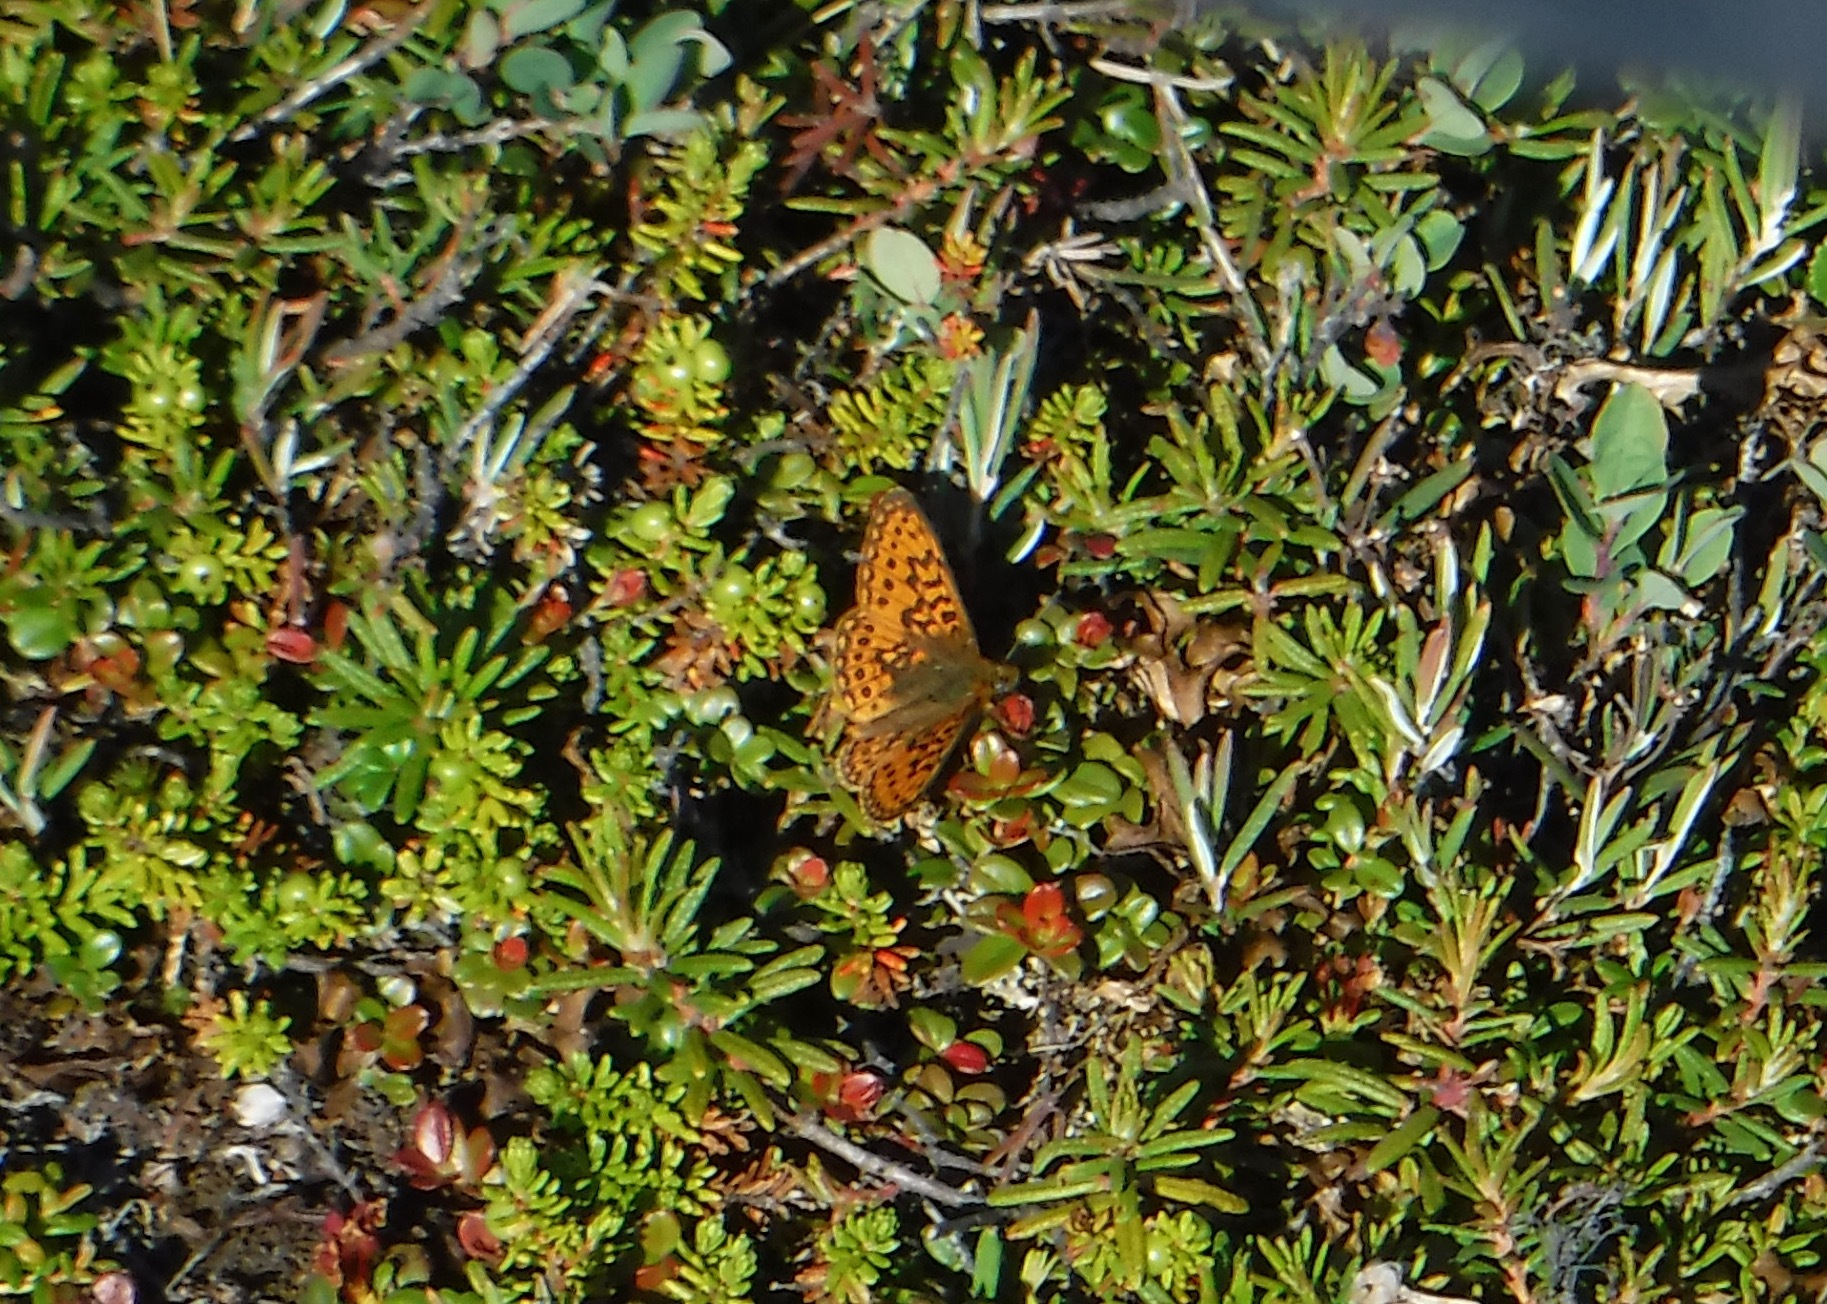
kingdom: Animalia
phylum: Arthropoda
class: Insecta
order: Lepidoptera
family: Nymphalidae
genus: Boloria
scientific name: Boloria eunomia
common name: Bog fritillary
